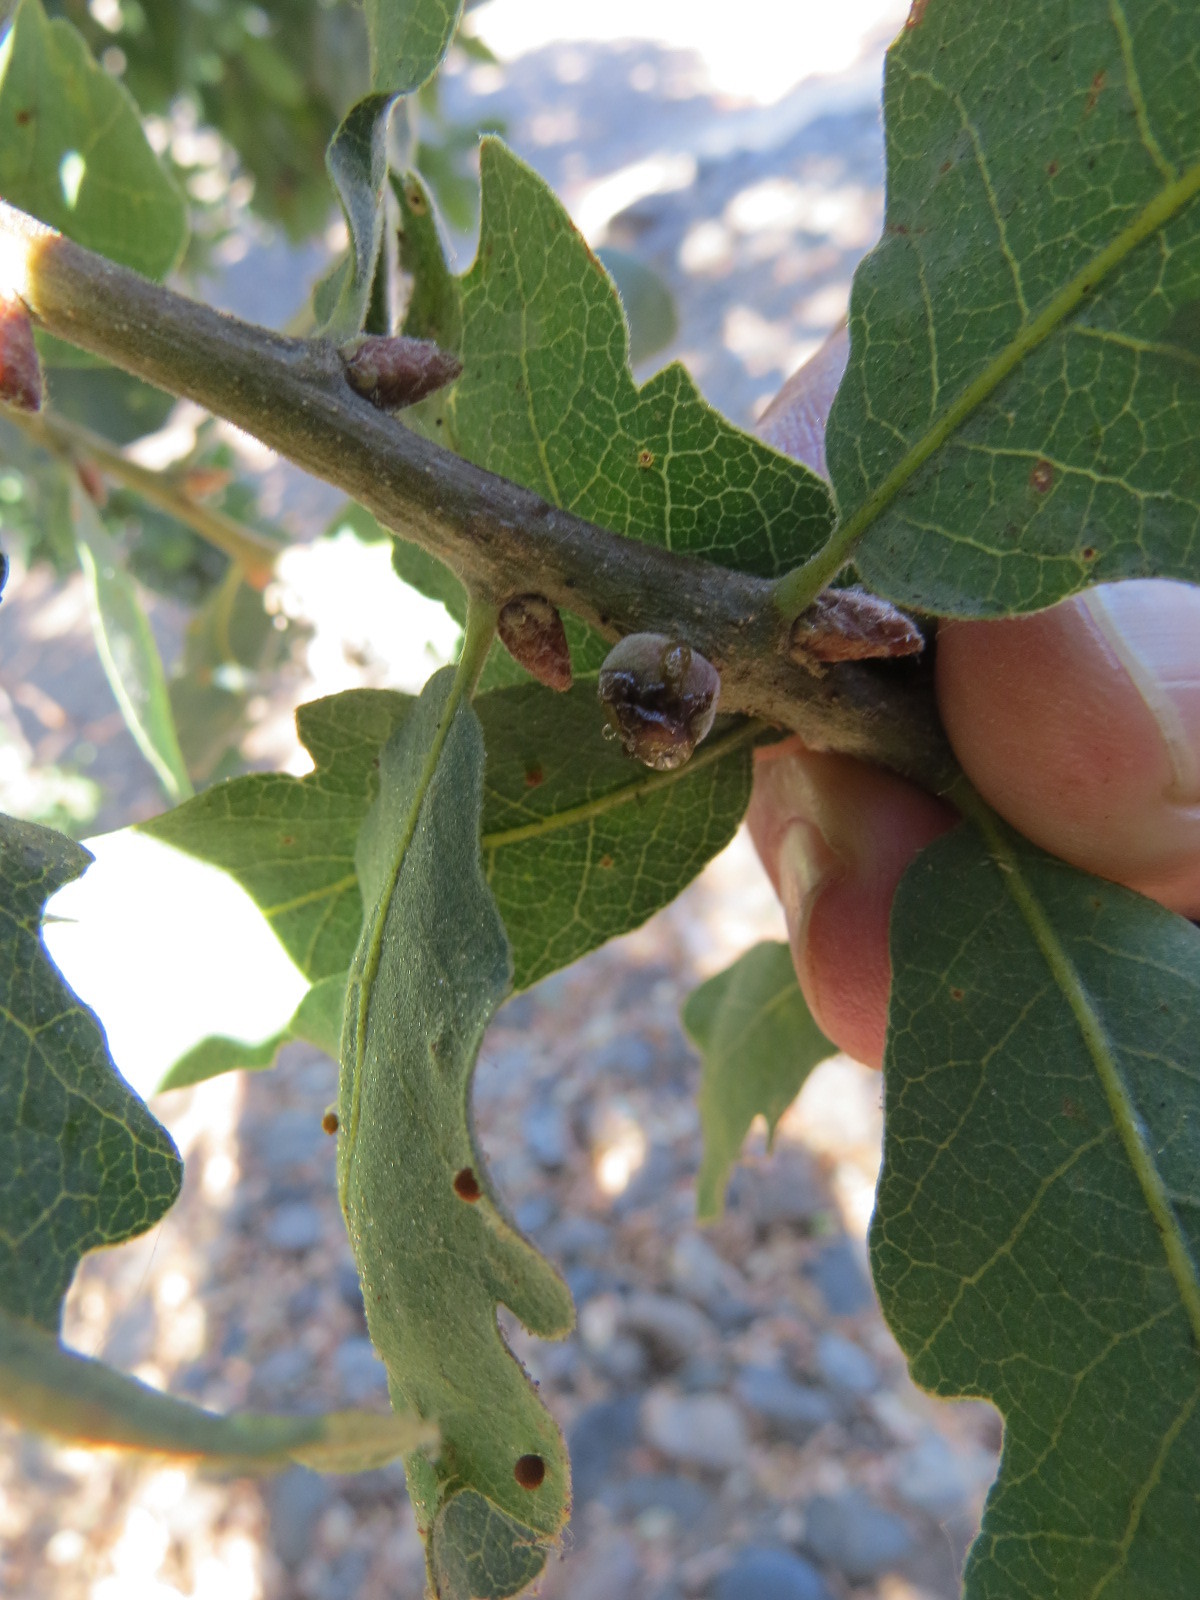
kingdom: Animalia
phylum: Arthropoda
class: Insecta
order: Hymenoptera
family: Cynipidae
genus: Disholcaspis
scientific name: Disholcaspis
